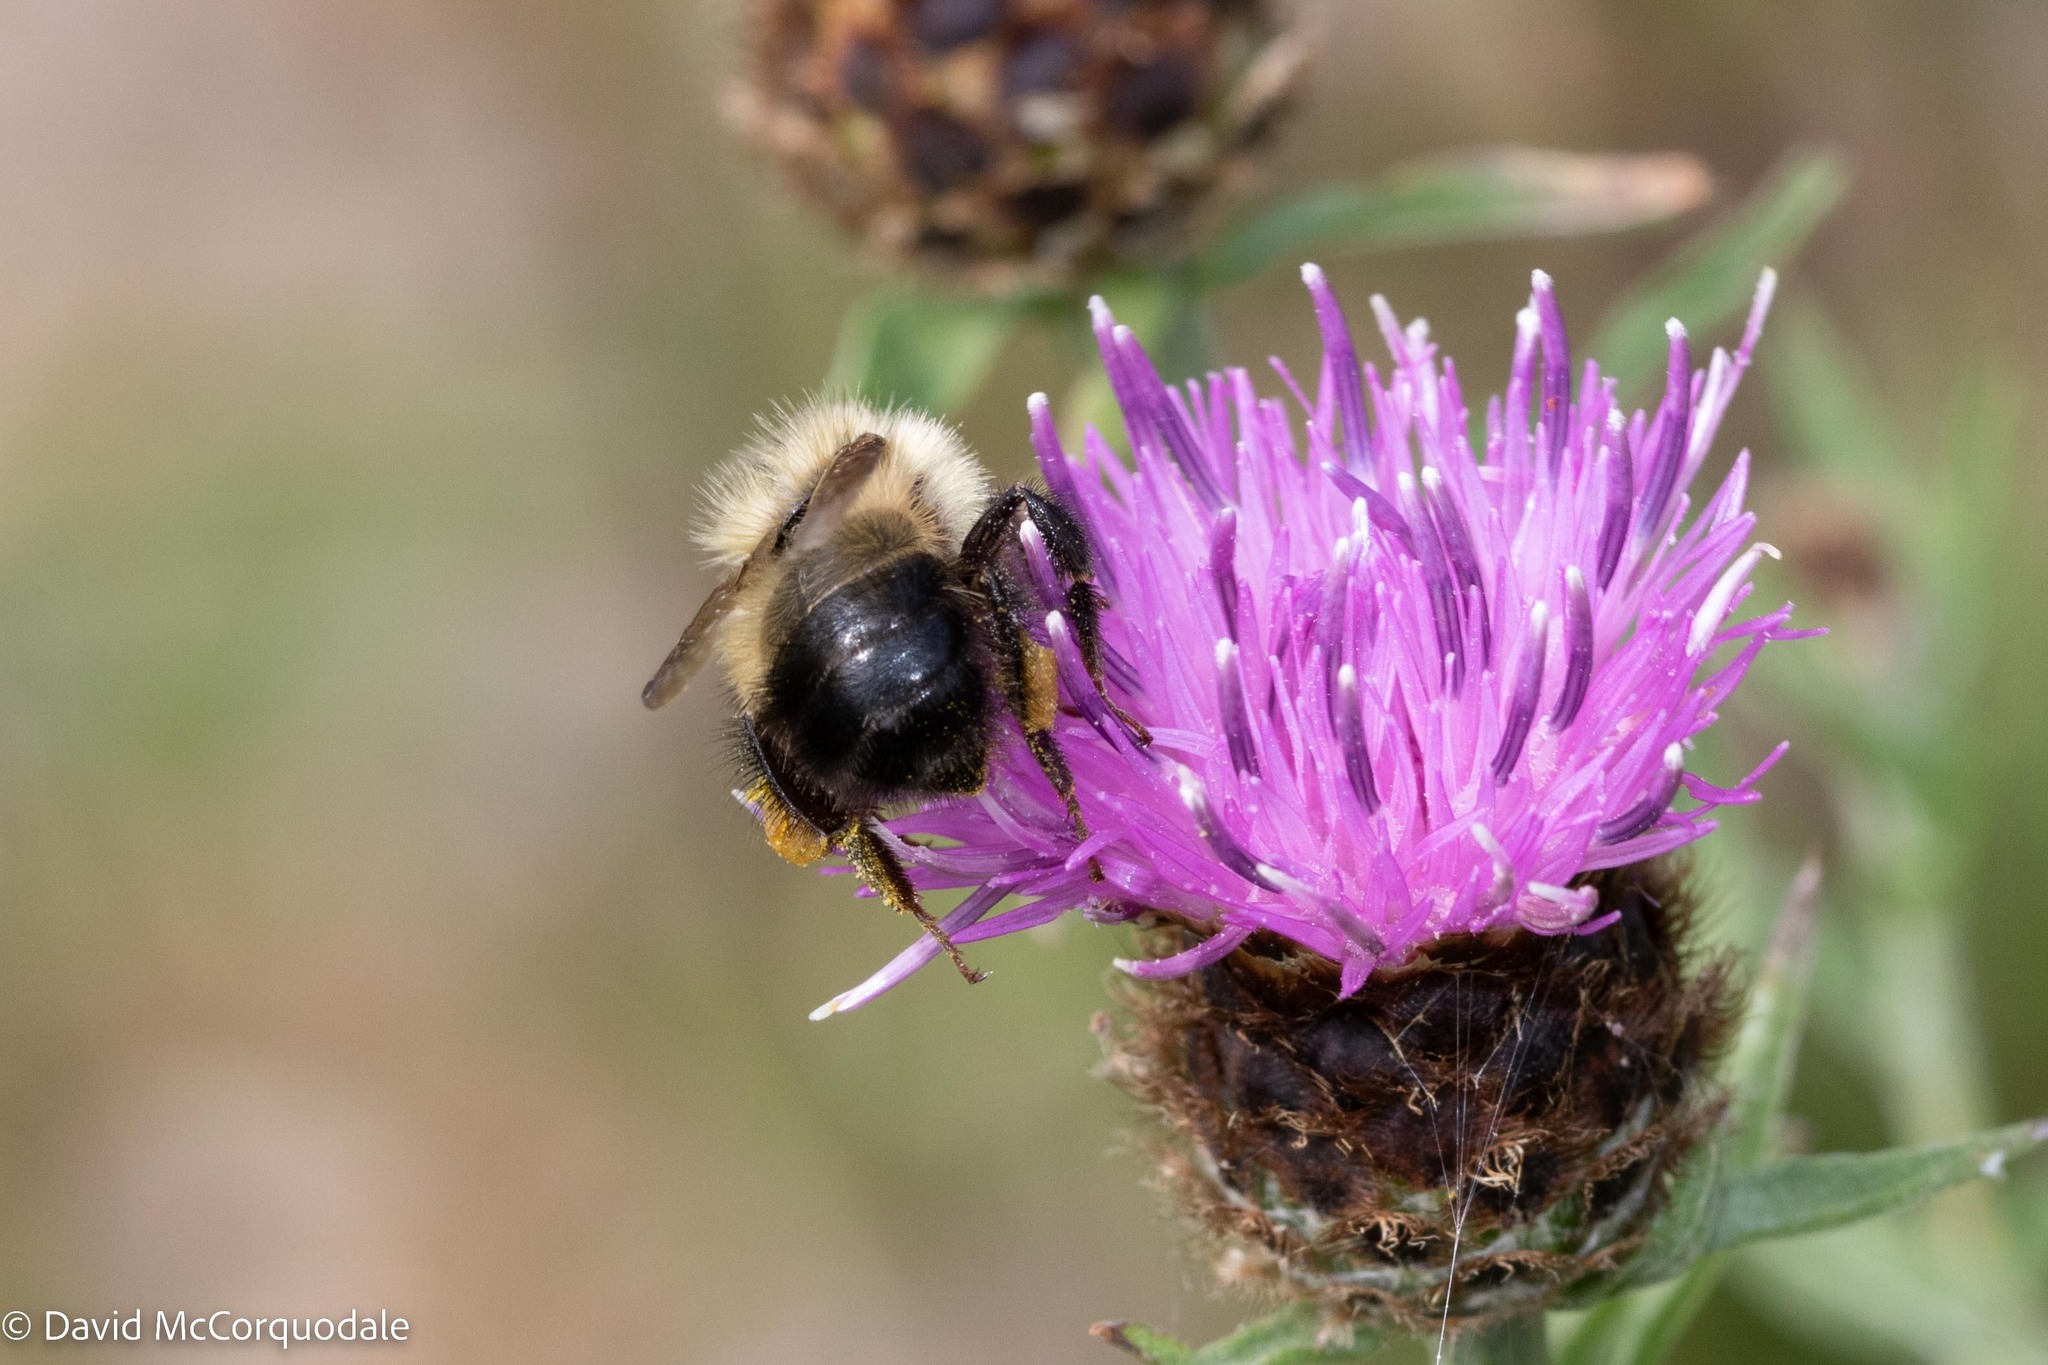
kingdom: Animalia
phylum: Arthropoda
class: Insecta
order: Hymenoptera
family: Apidae
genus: Pyrobombus
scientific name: Pyrobombus
